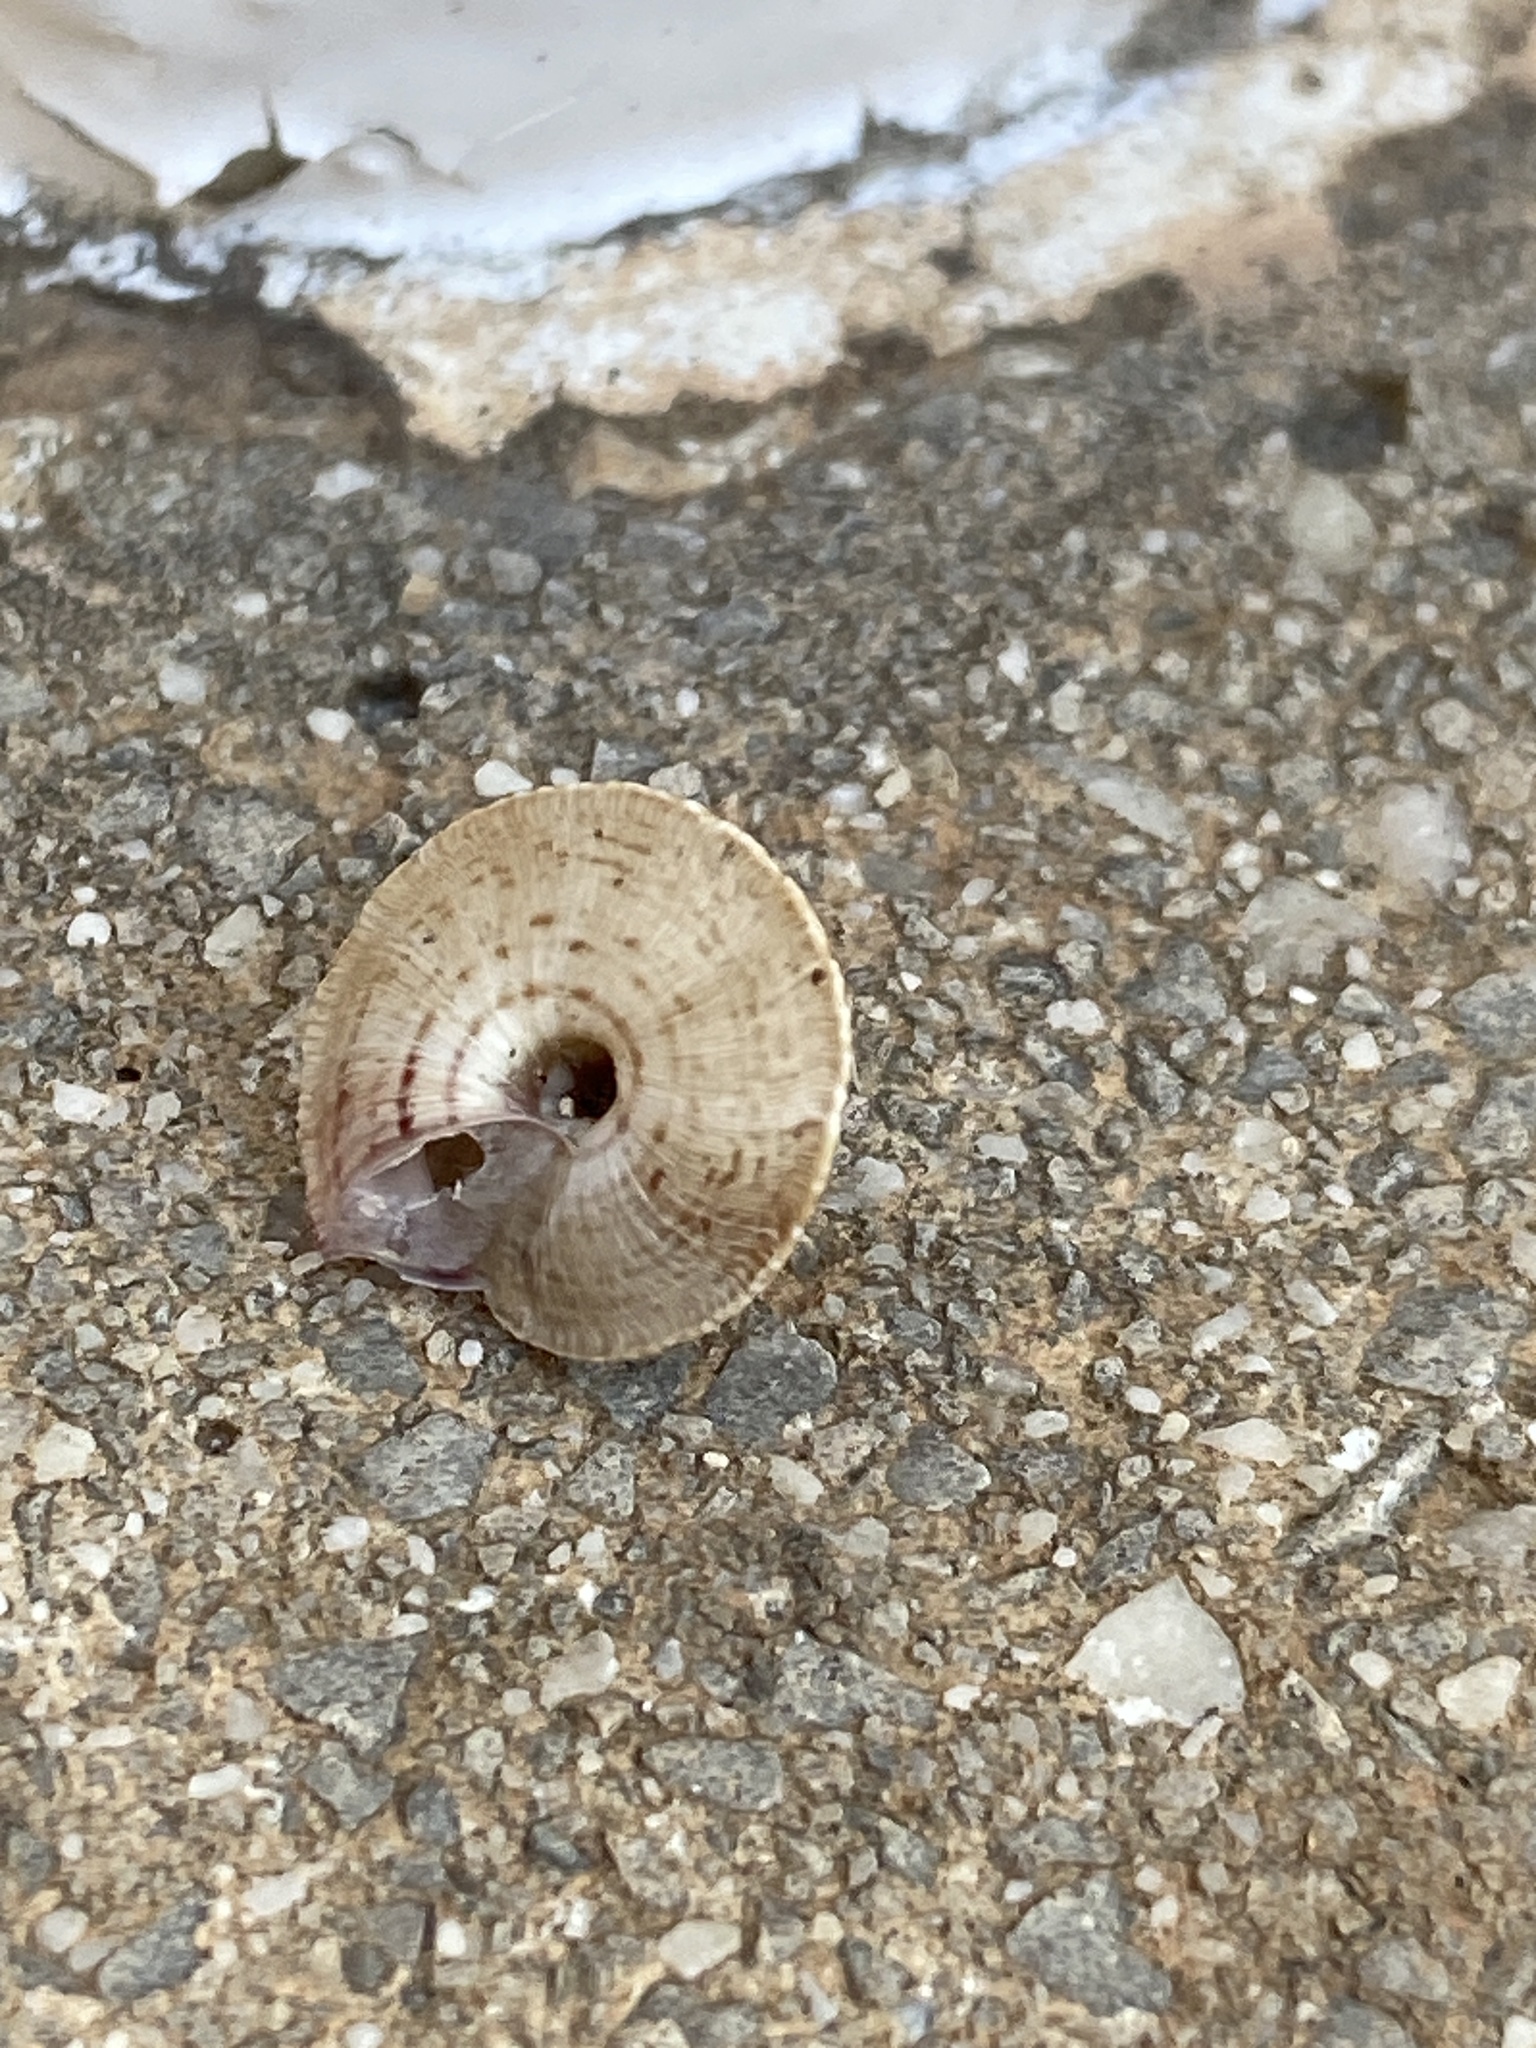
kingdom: Animalia
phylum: Mollusca
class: Gastropoda
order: Stylommatophora
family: Geomitridae
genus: Trochoidea
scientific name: Trochoidea elegans
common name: Elegant helicellid
